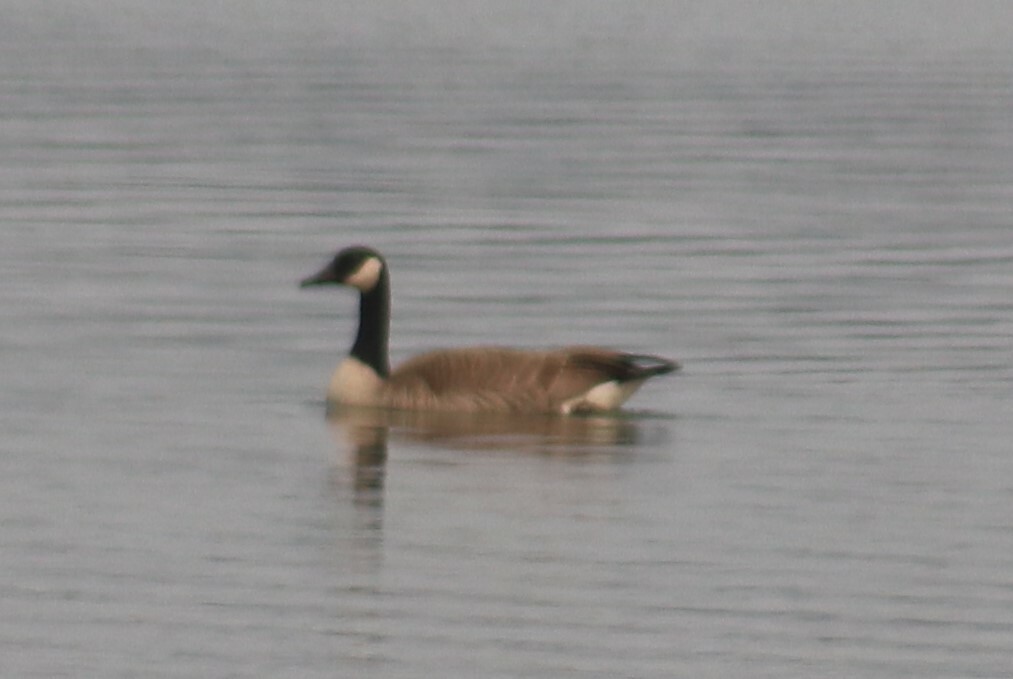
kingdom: Animalia
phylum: Chordata
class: Aves
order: Anseriformes
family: Anatidae
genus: Branta
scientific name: Branta canadensis
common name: Canada goose
